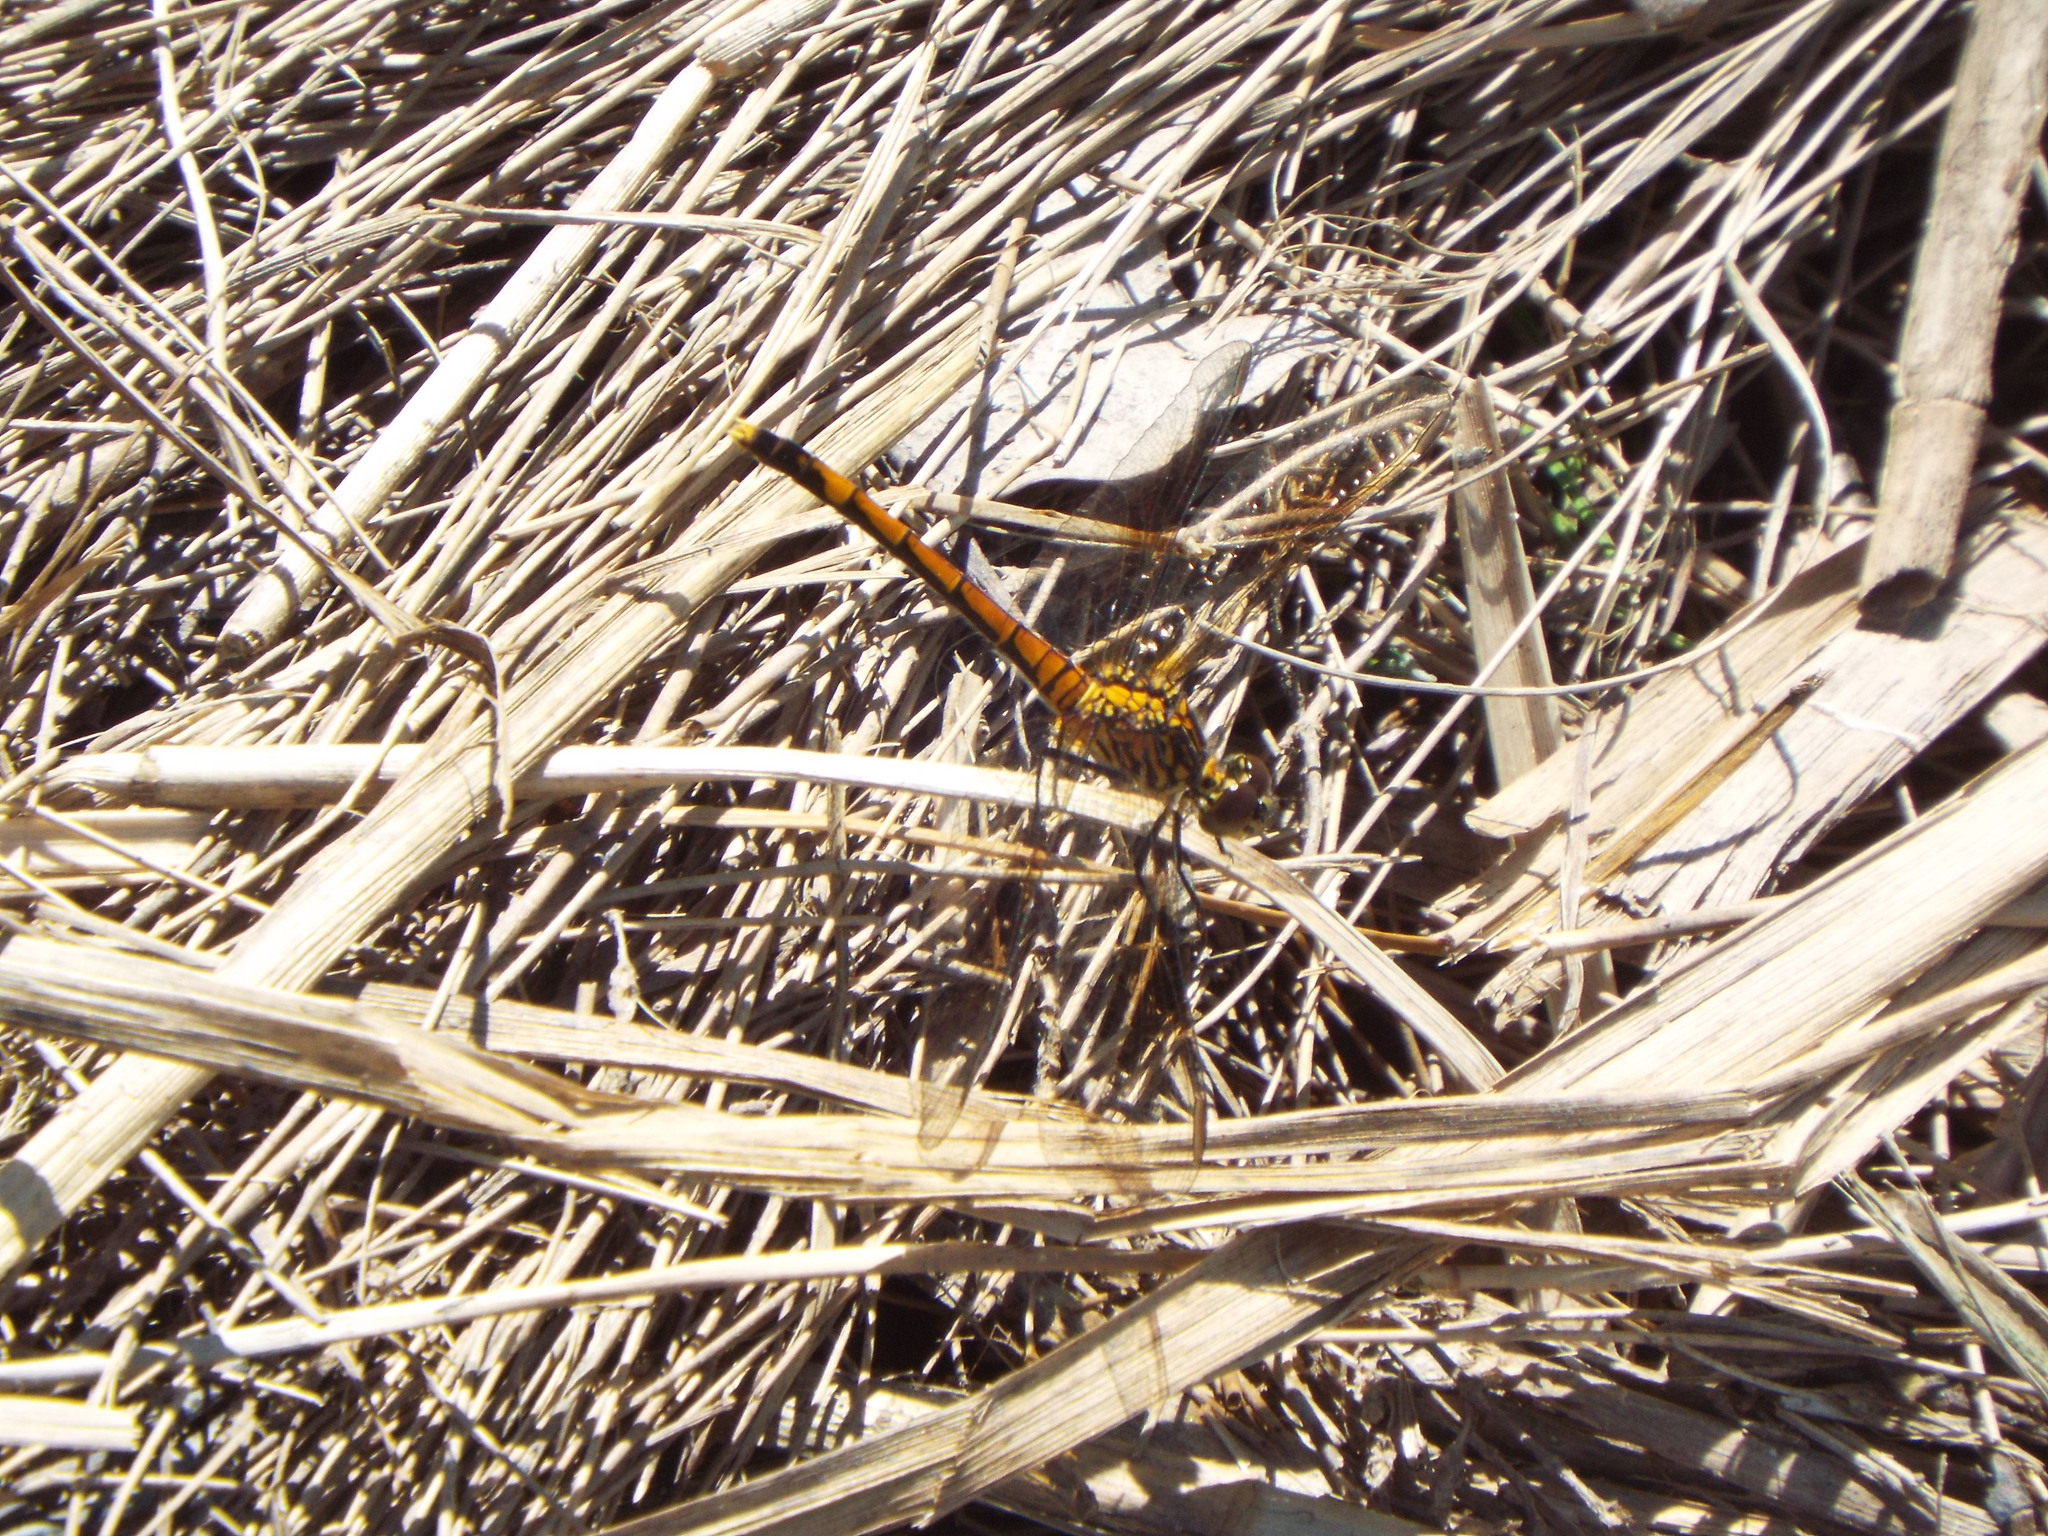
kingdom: Animalia
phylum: Arthropoda
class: Insecta
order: Odonata
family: Libellulidae
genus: Erythrodiplax
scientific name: Erythrodiplax berenice
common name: Seaside dragonlet
